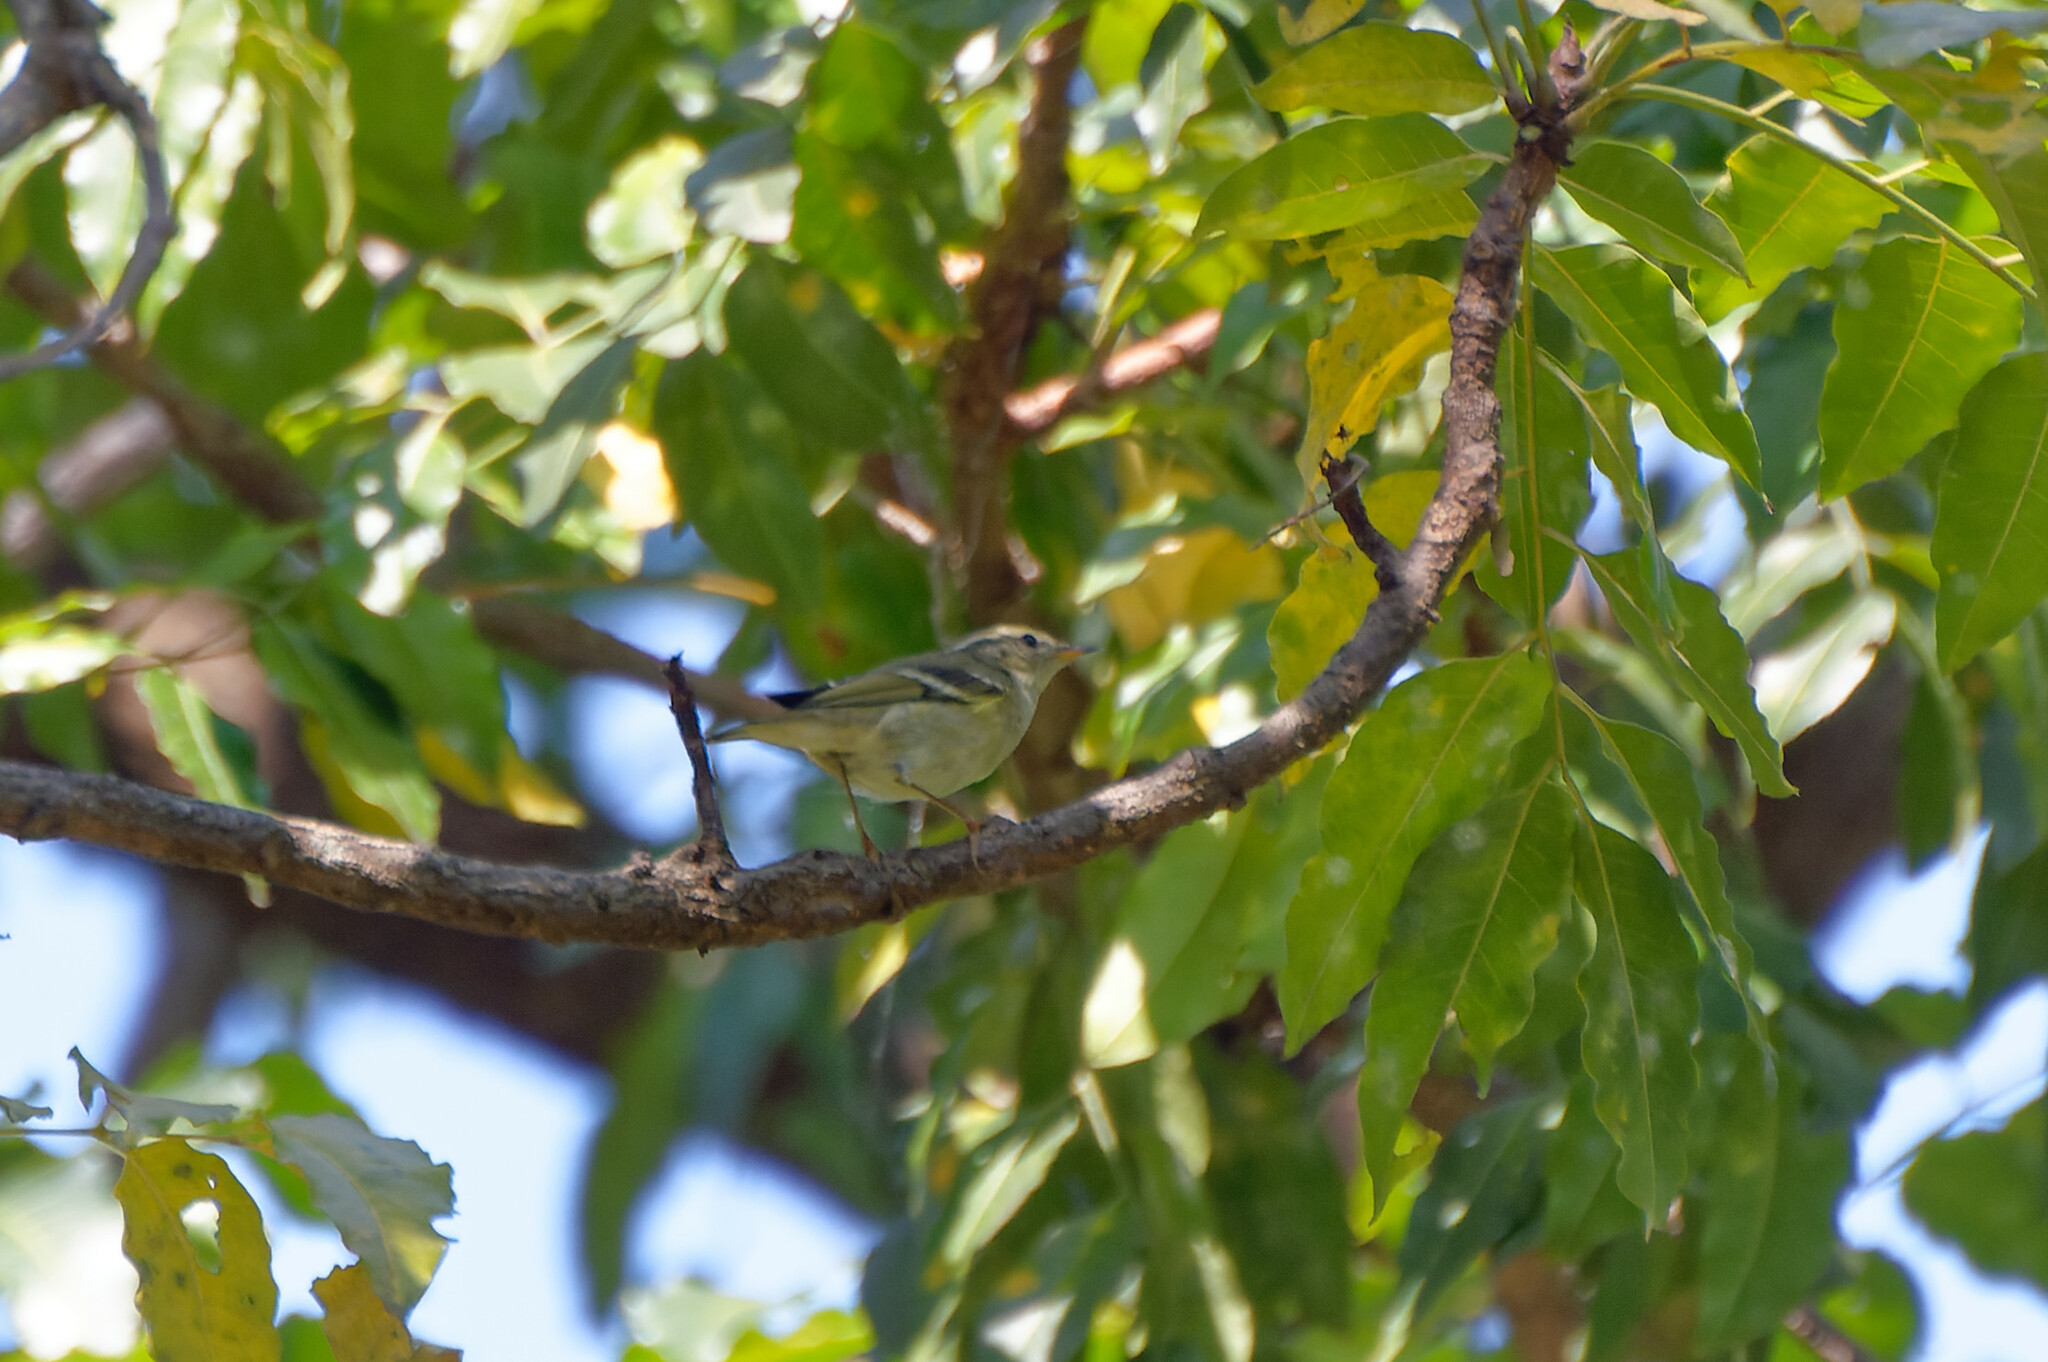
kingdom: Animalia
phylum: Chordata
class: Aves
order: Passeriformes
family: Phylloscopidae
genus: Phylloscopus
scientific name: Phylloscopus inornatus
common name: Yellow-browed warbler
